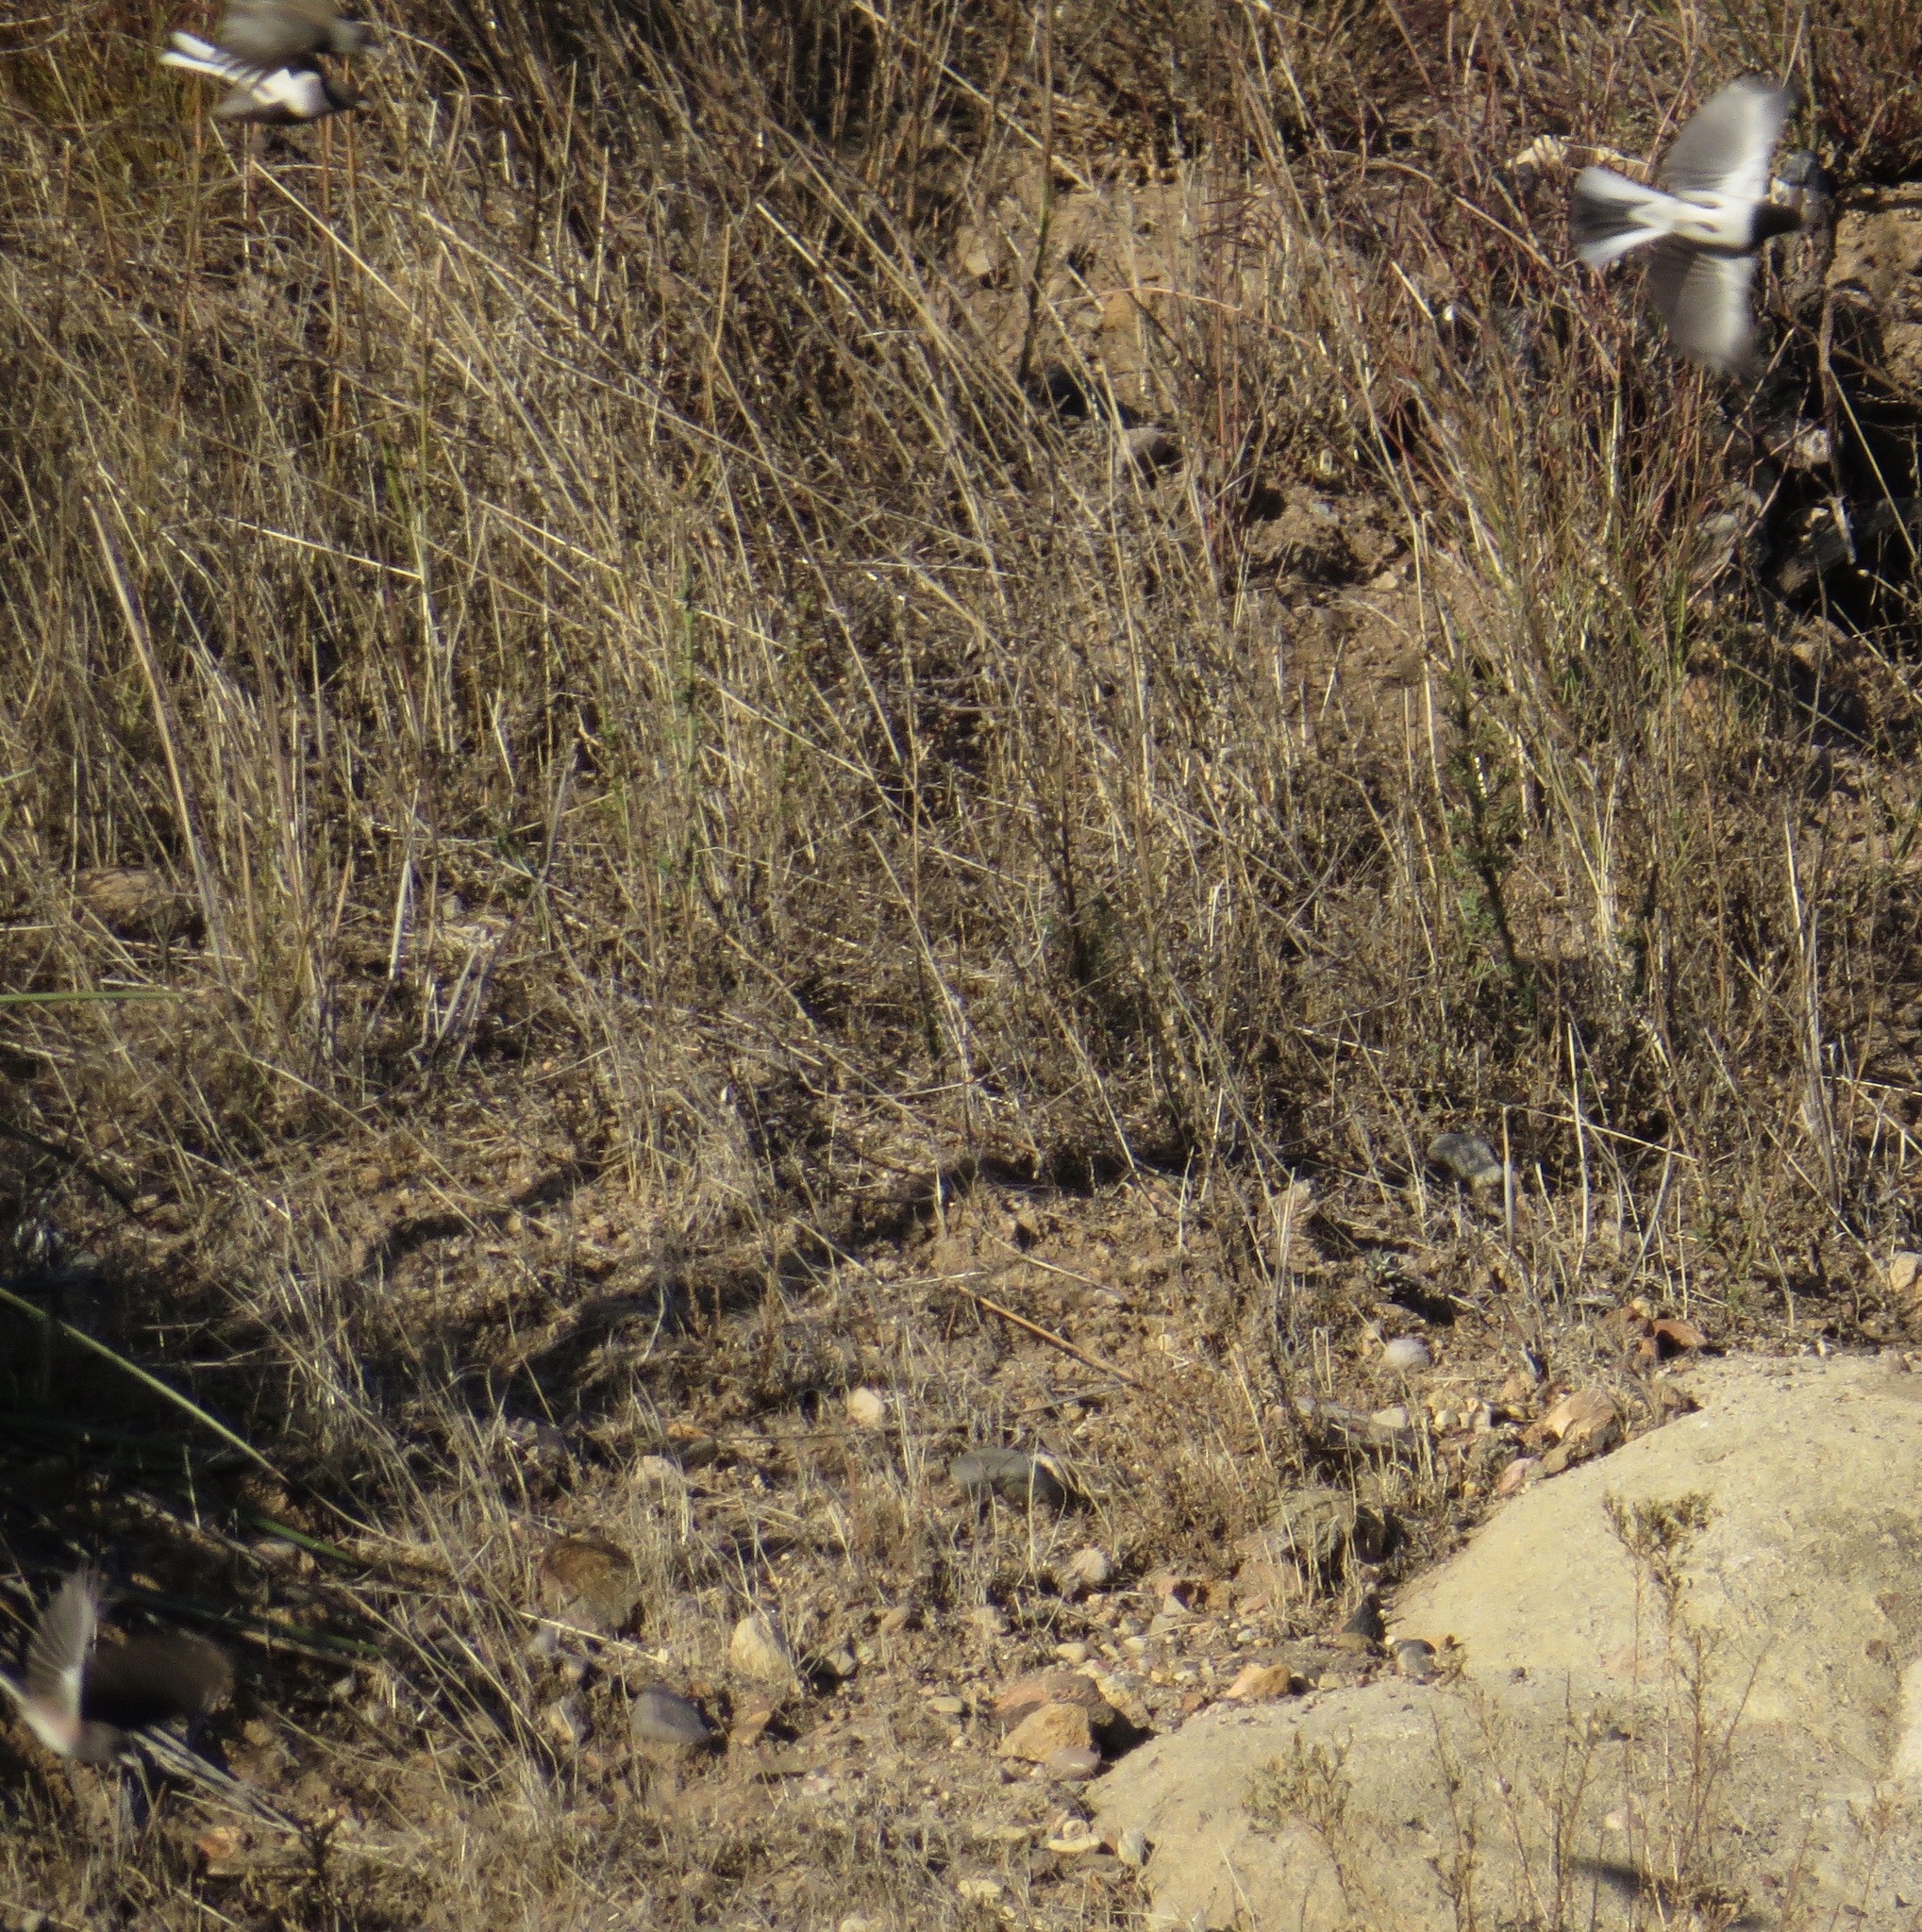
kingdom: Animalia
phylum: Chordata
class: Aves
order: Passeriformes
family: Passerellidae
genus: Junco
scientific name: Junco hyemalis
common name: Dark-eyed junco
